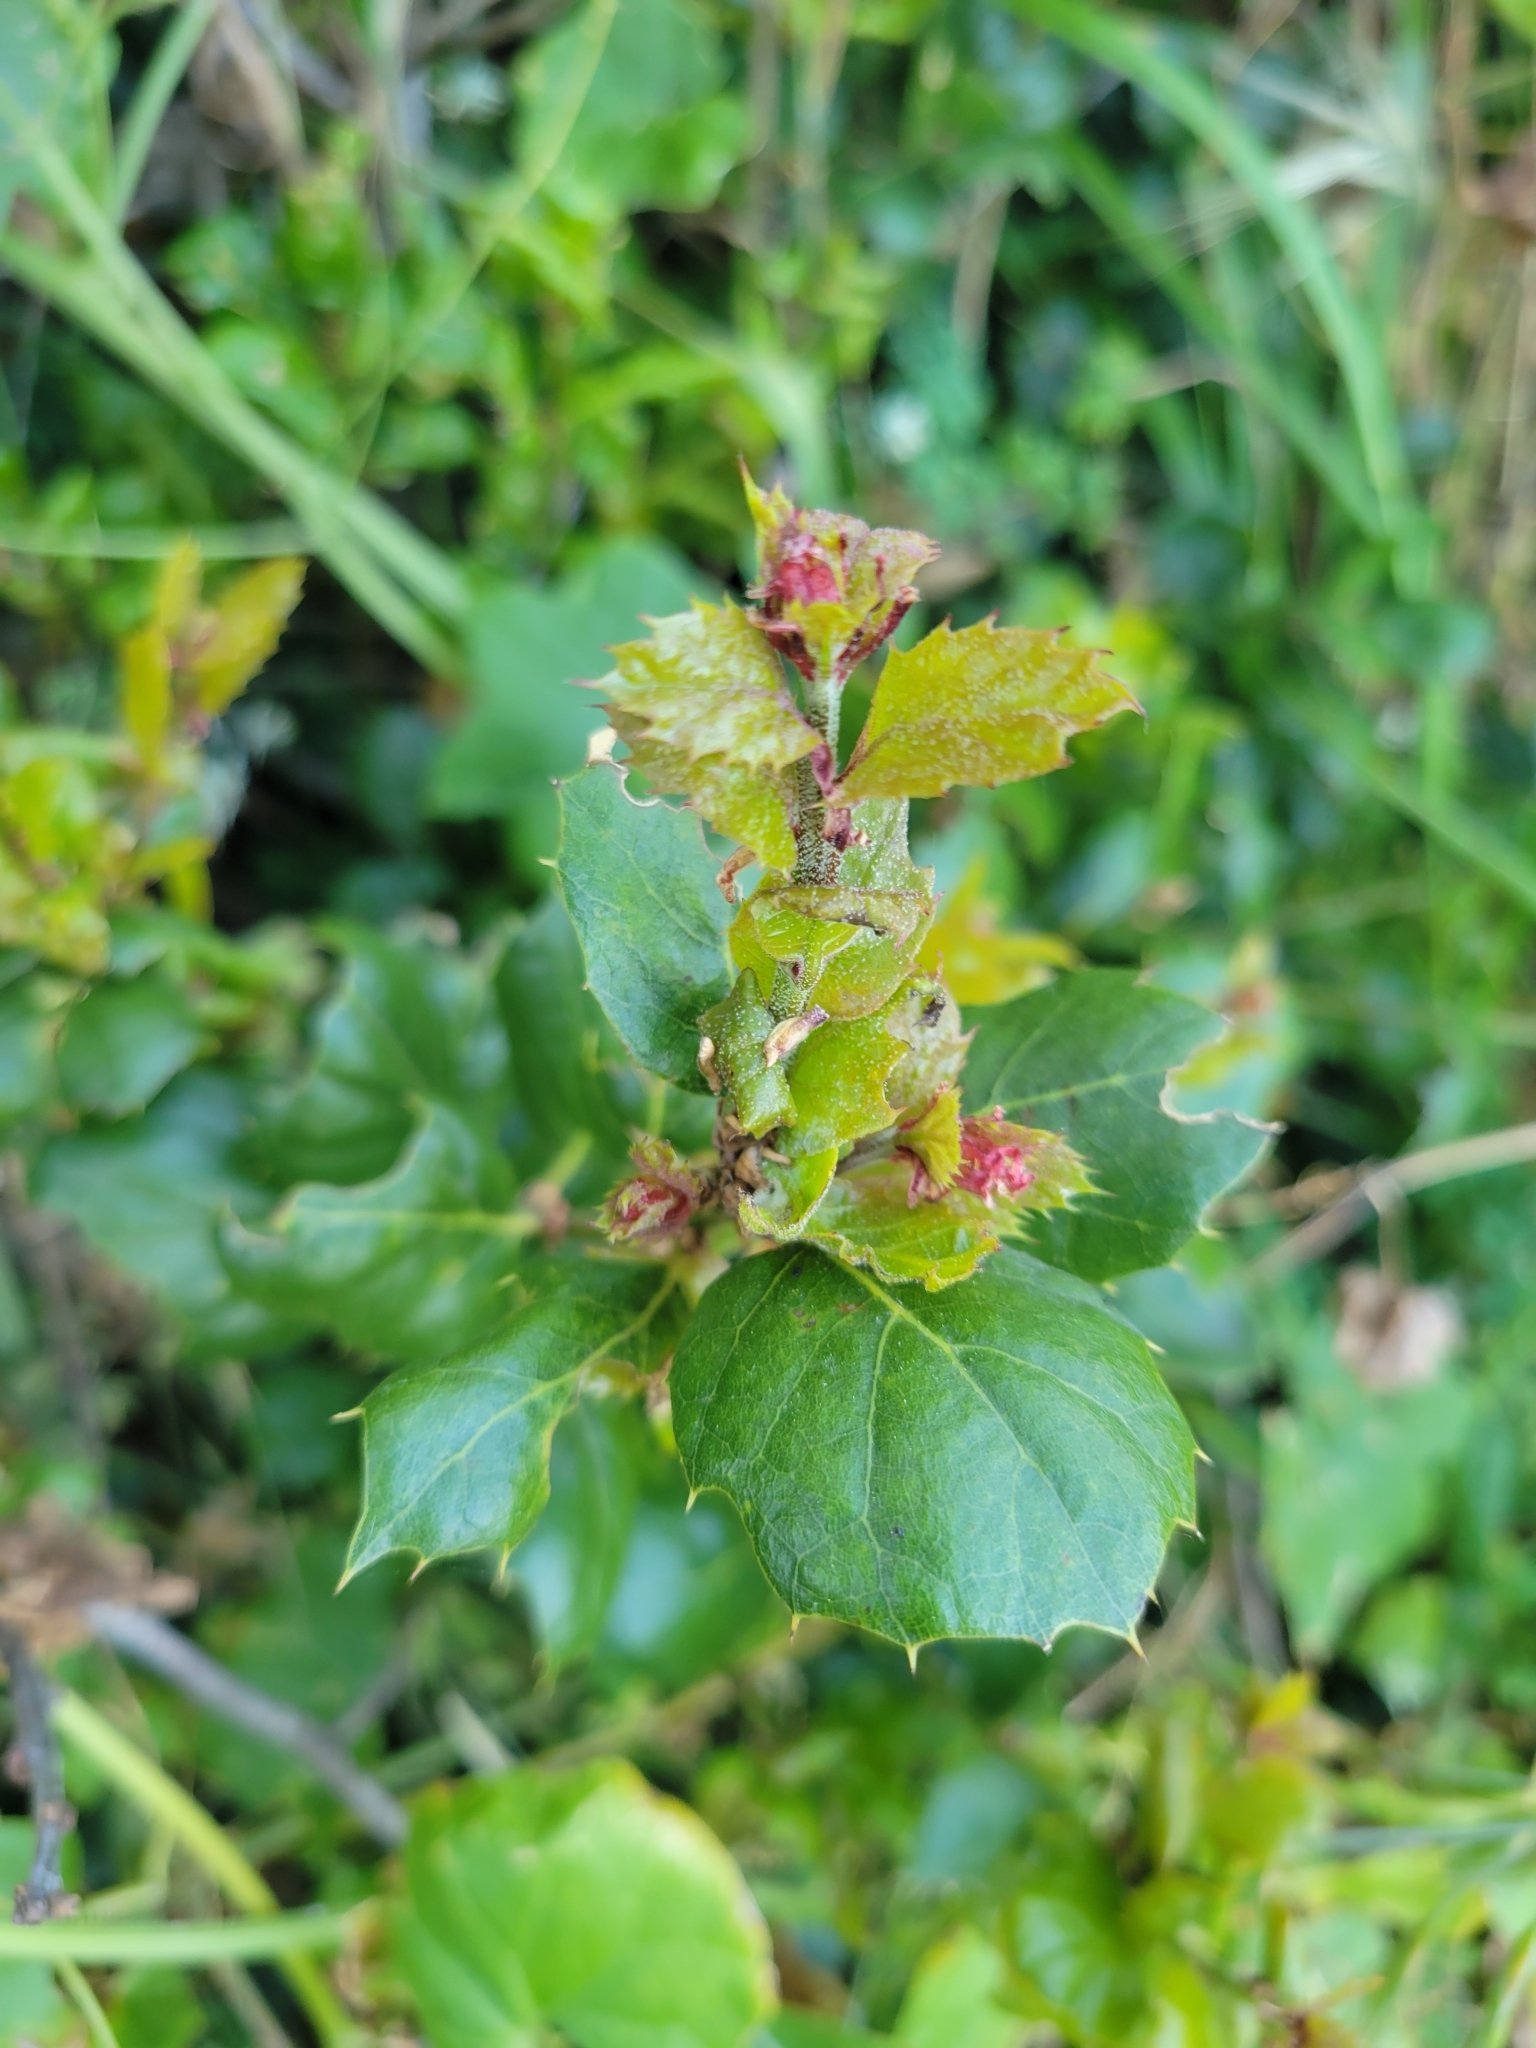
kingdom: Plantae
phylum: Tracheophyta
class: Magnoliopsida
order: Fagales
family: Fagaceae
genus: Quercus
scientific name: Quercus agrifolia
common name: California live oak
